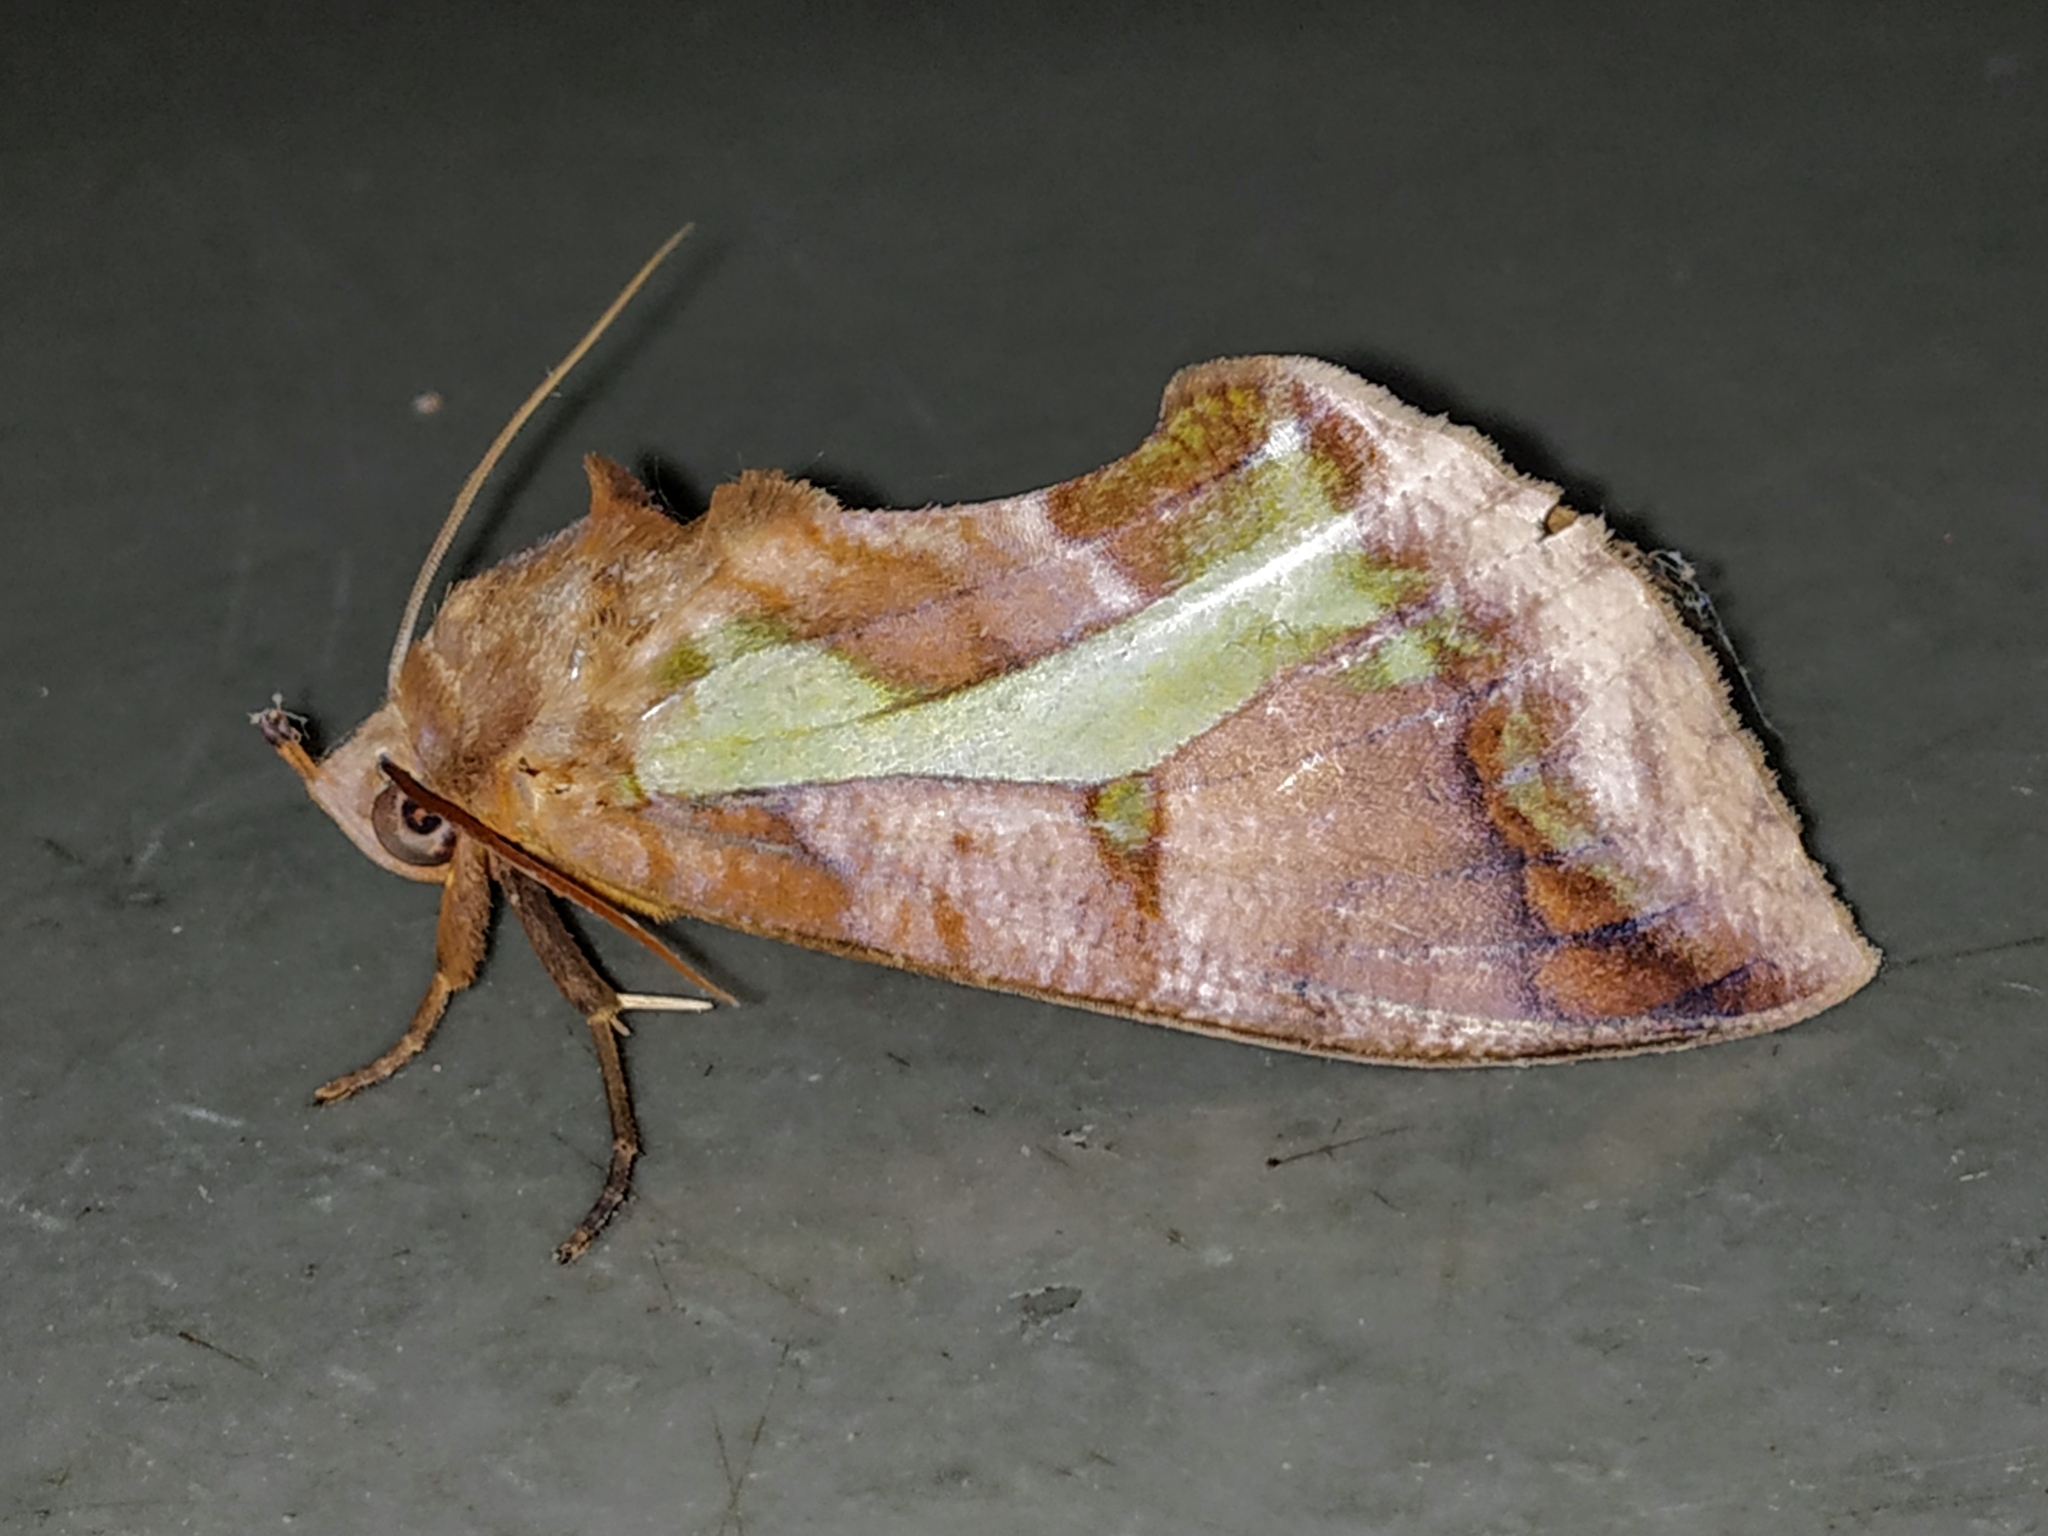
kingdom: Animalia
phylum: Arthropoda
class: Insecta
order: Lepidoptera
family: Erebidae
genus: Eudocima
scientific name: Eudocima homaena
